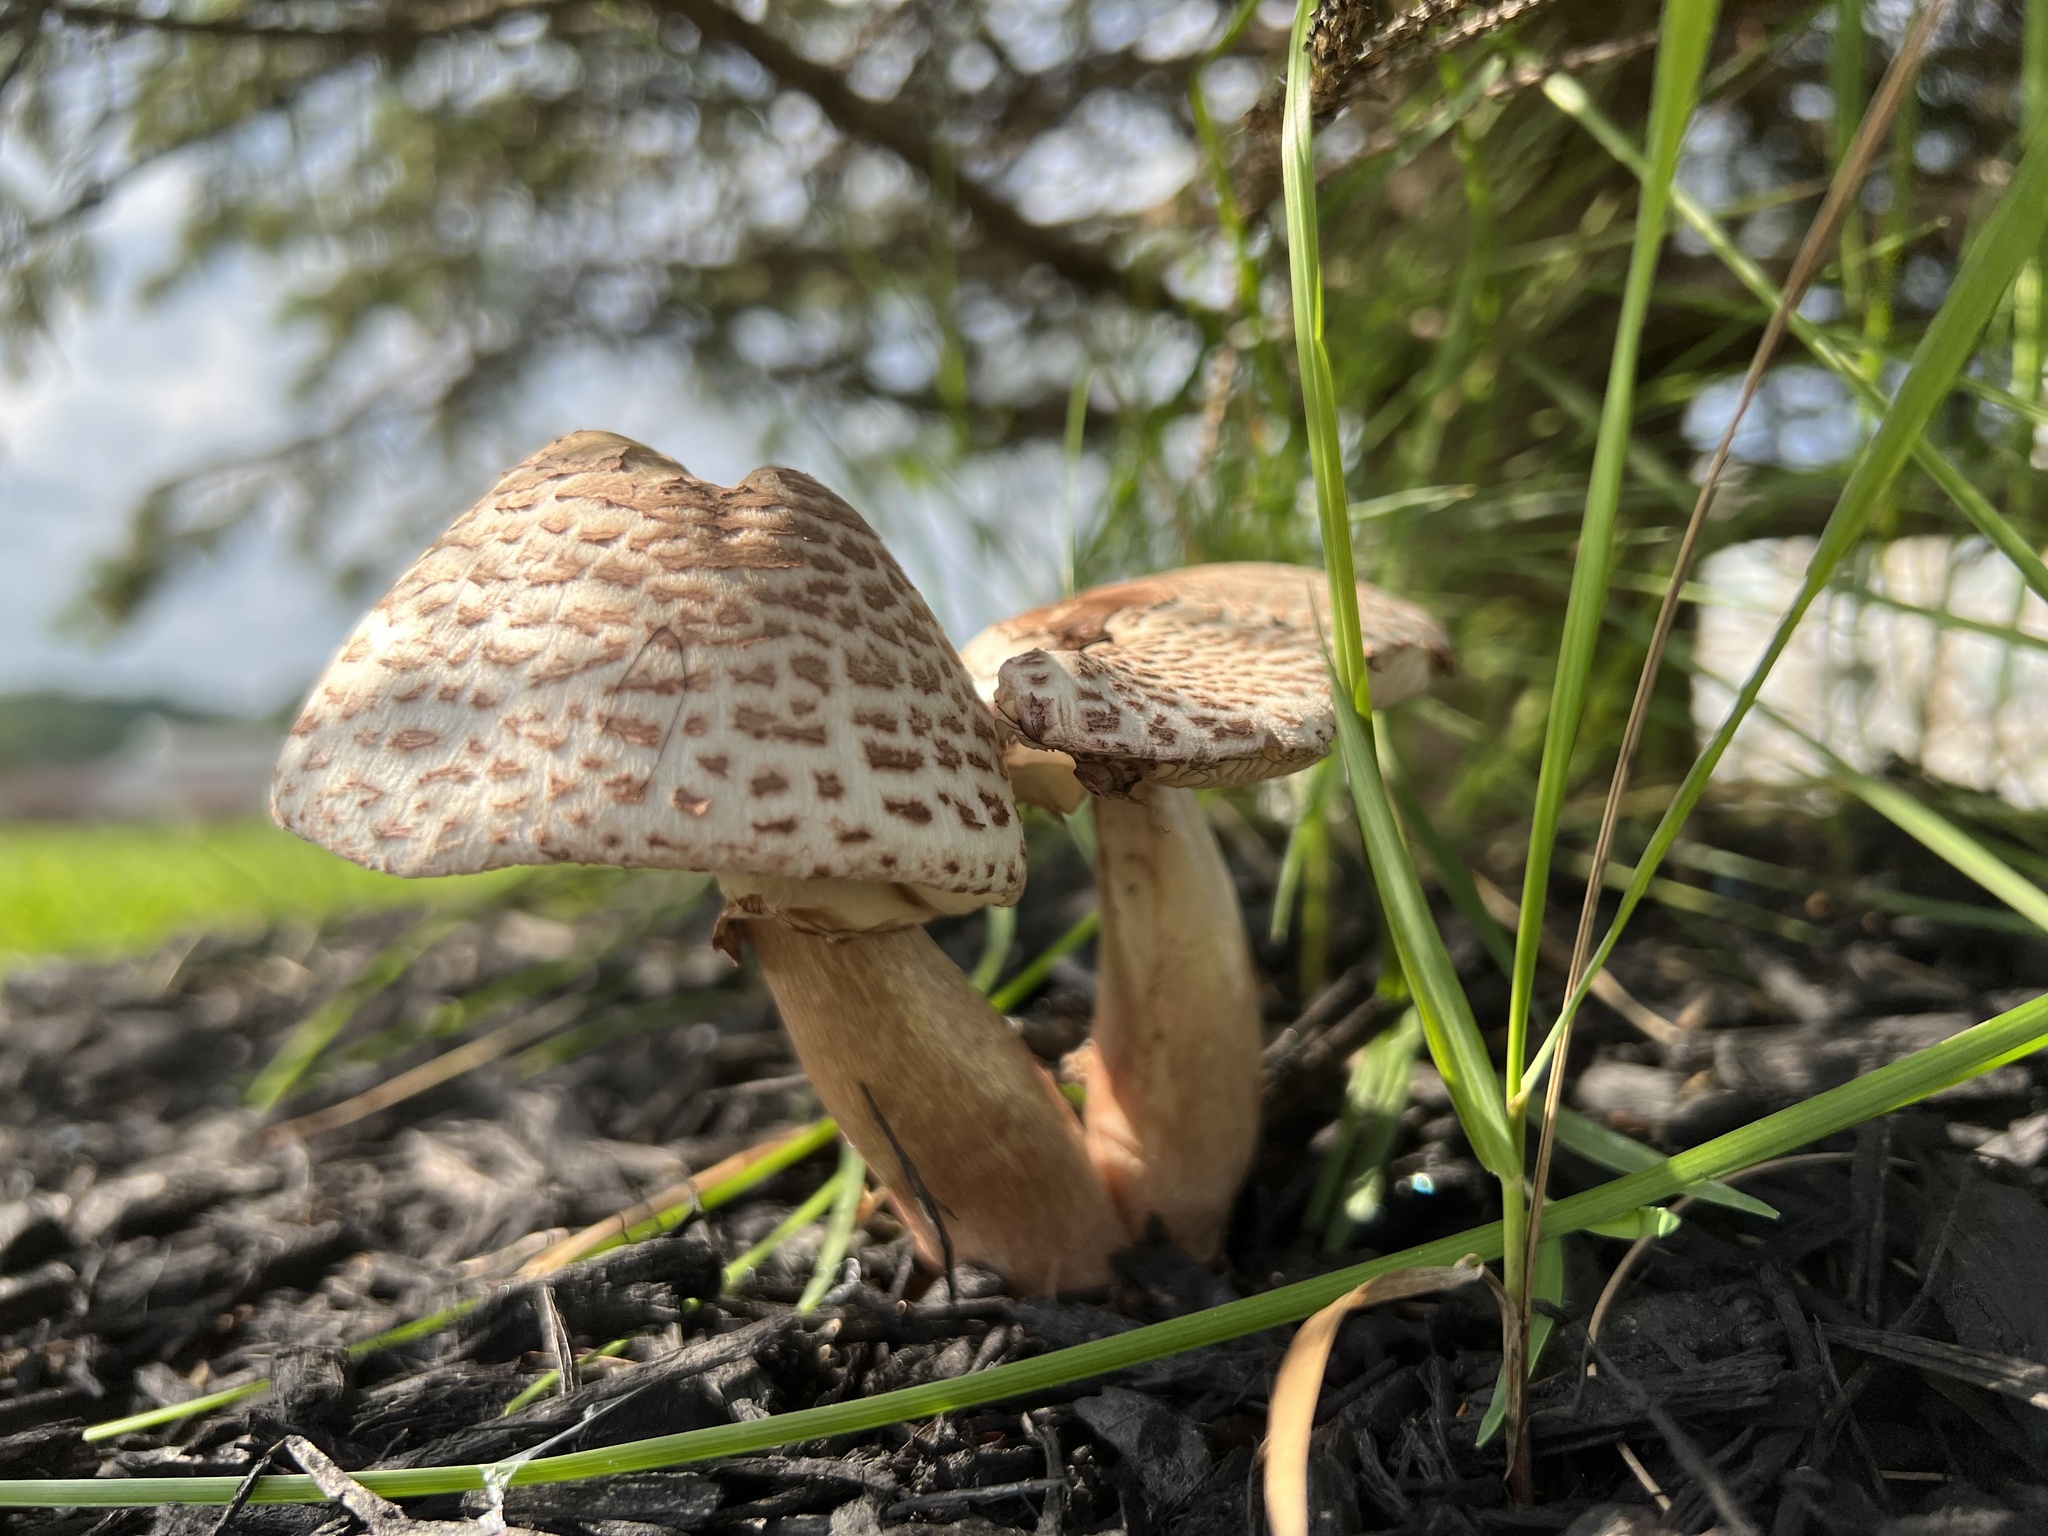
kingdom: Fungi
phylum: Basidiomycota
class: Agaricomycetes
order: Agaricales
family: Agaricaceae
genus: Leucoagaricus
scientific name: Leucoagaricus americanus
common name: Reddening lepiota
